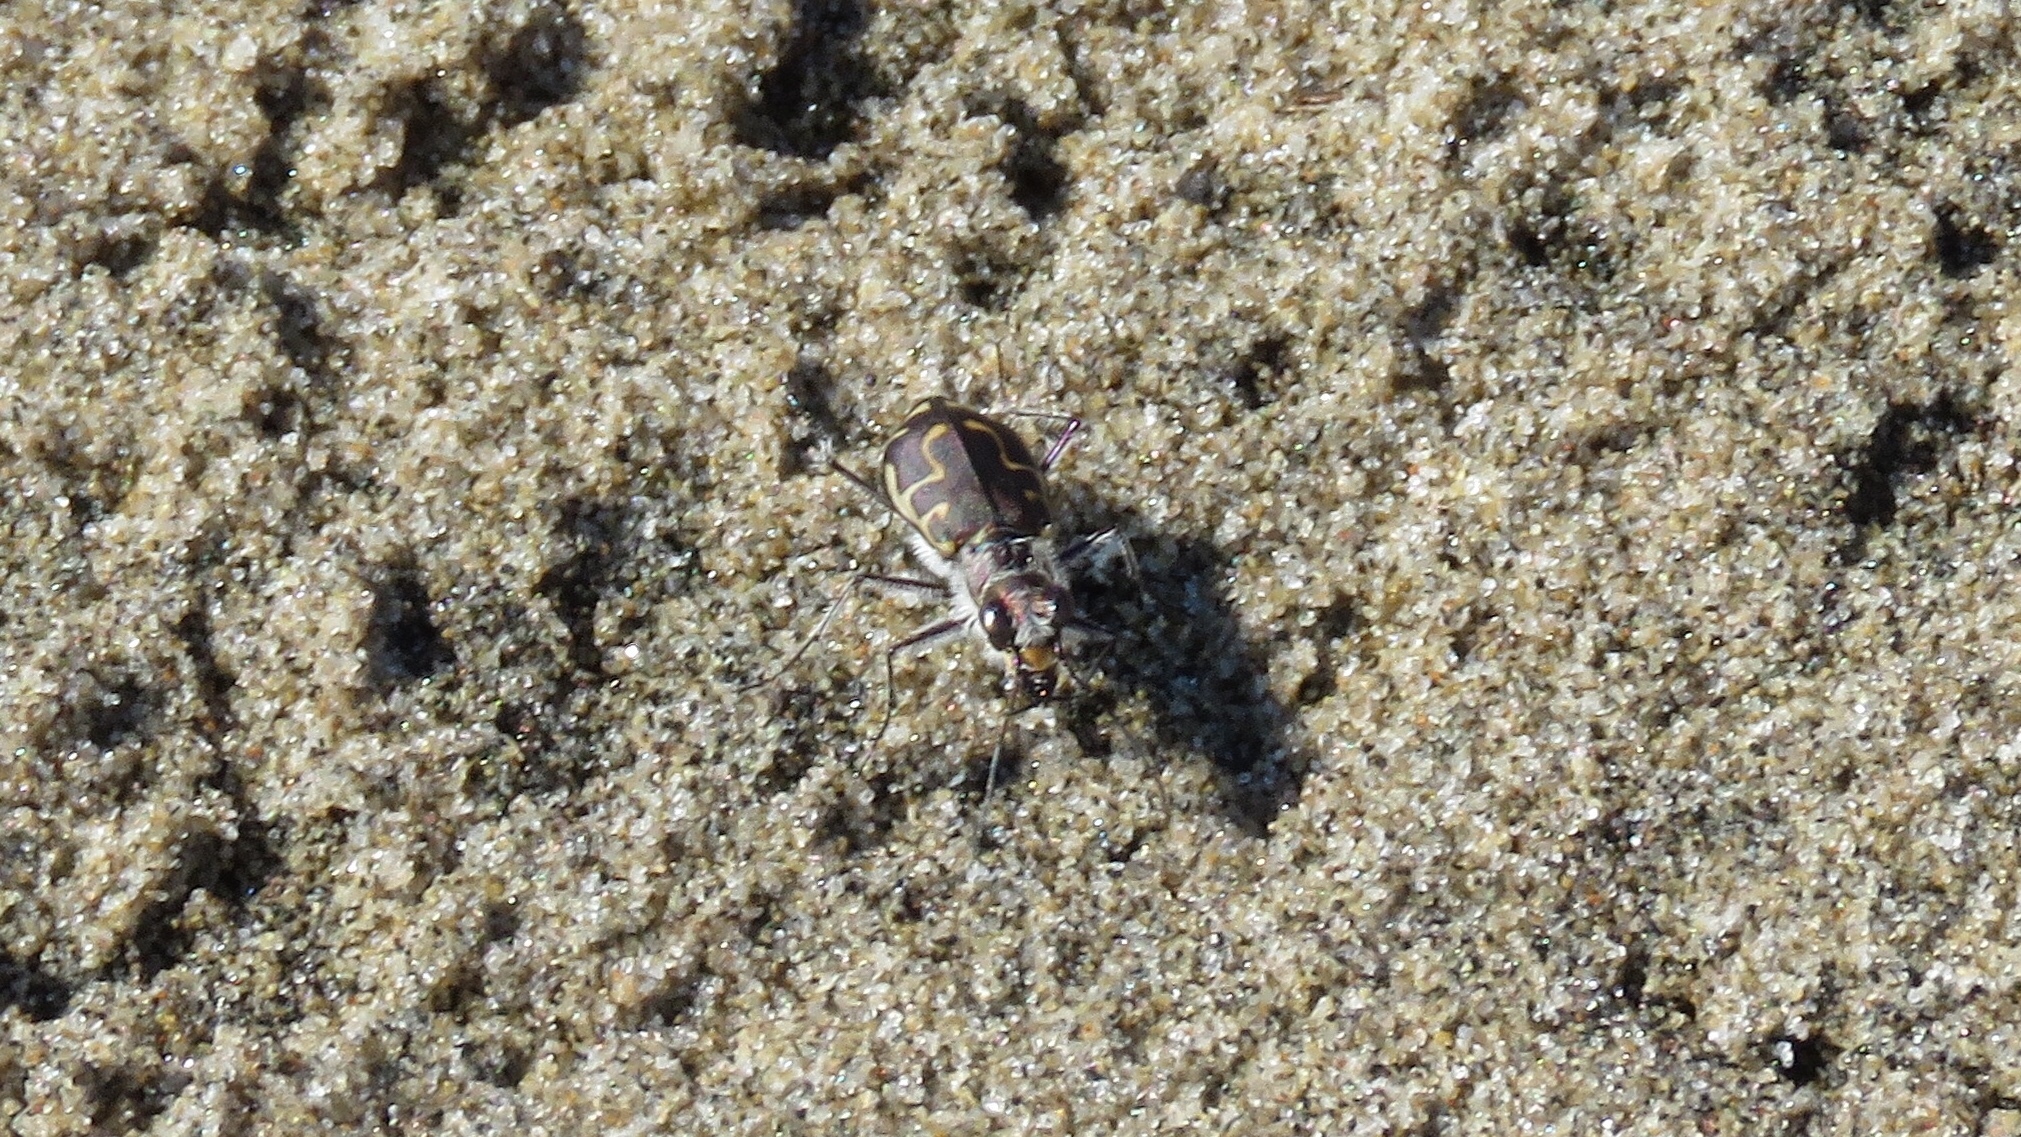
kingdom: Animalia
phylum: Arthropoda
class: Insecta
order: Coleoptera
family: Carabidae
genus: Cicindela
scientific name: Cicindela hirticollis
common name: Hairy-necked tiger beetle
